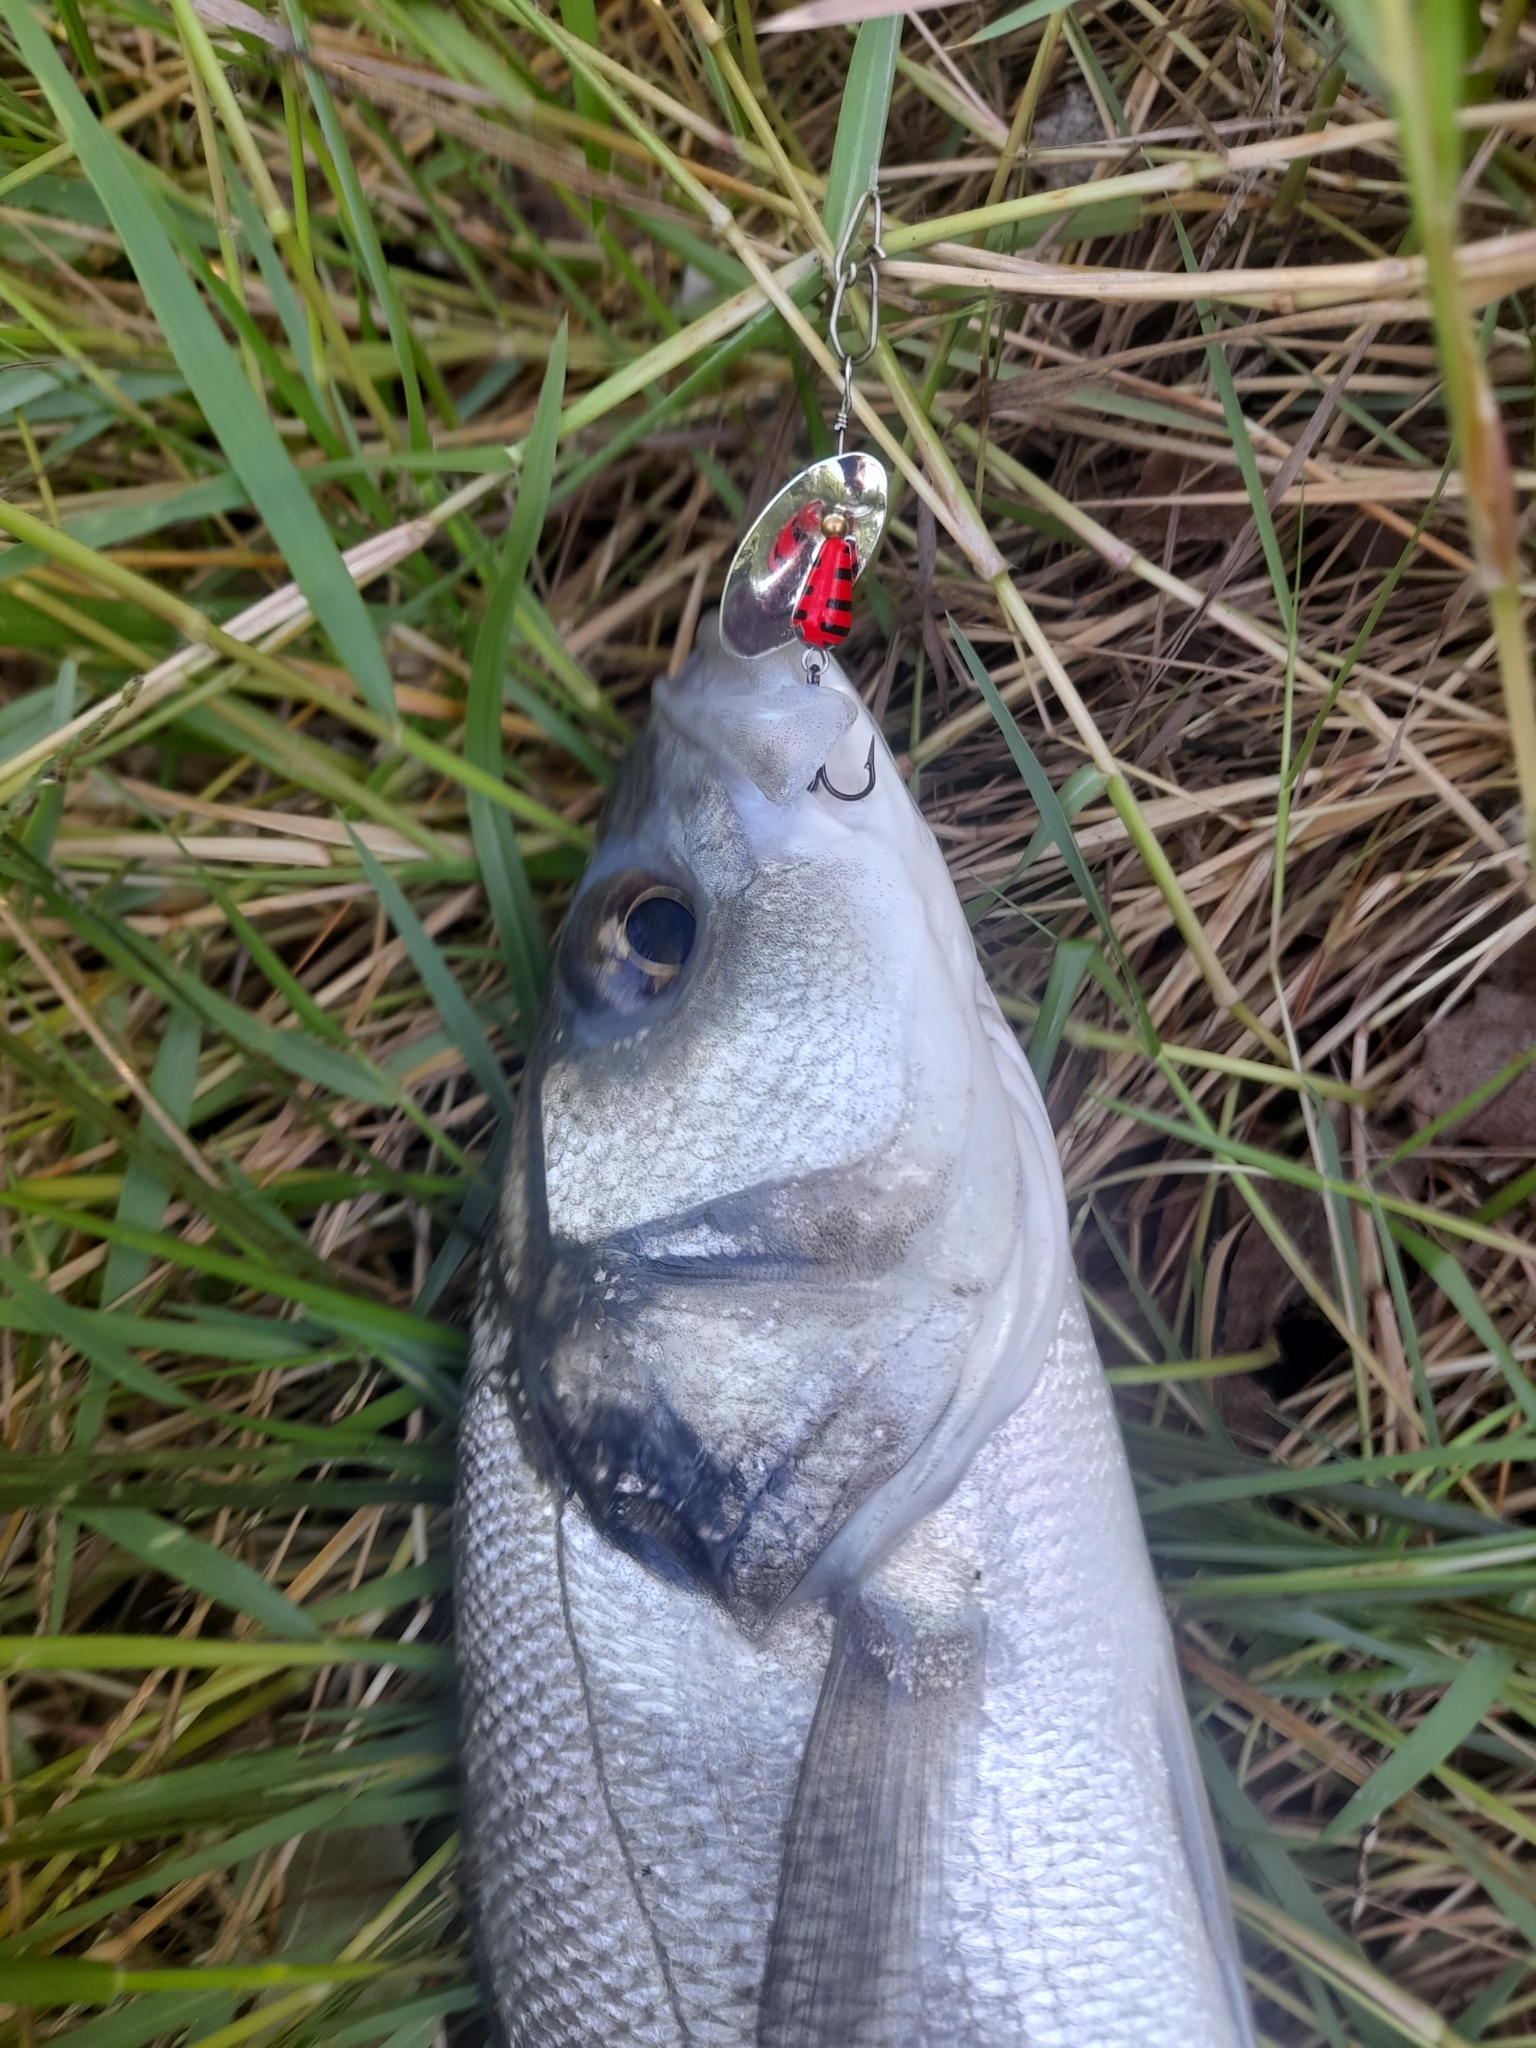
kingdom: Animalia
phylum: Chordata
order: Perciformes
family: Moronidae
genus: Dicentrarchus
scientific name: Dicentrarchus labrax
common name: European seabass
